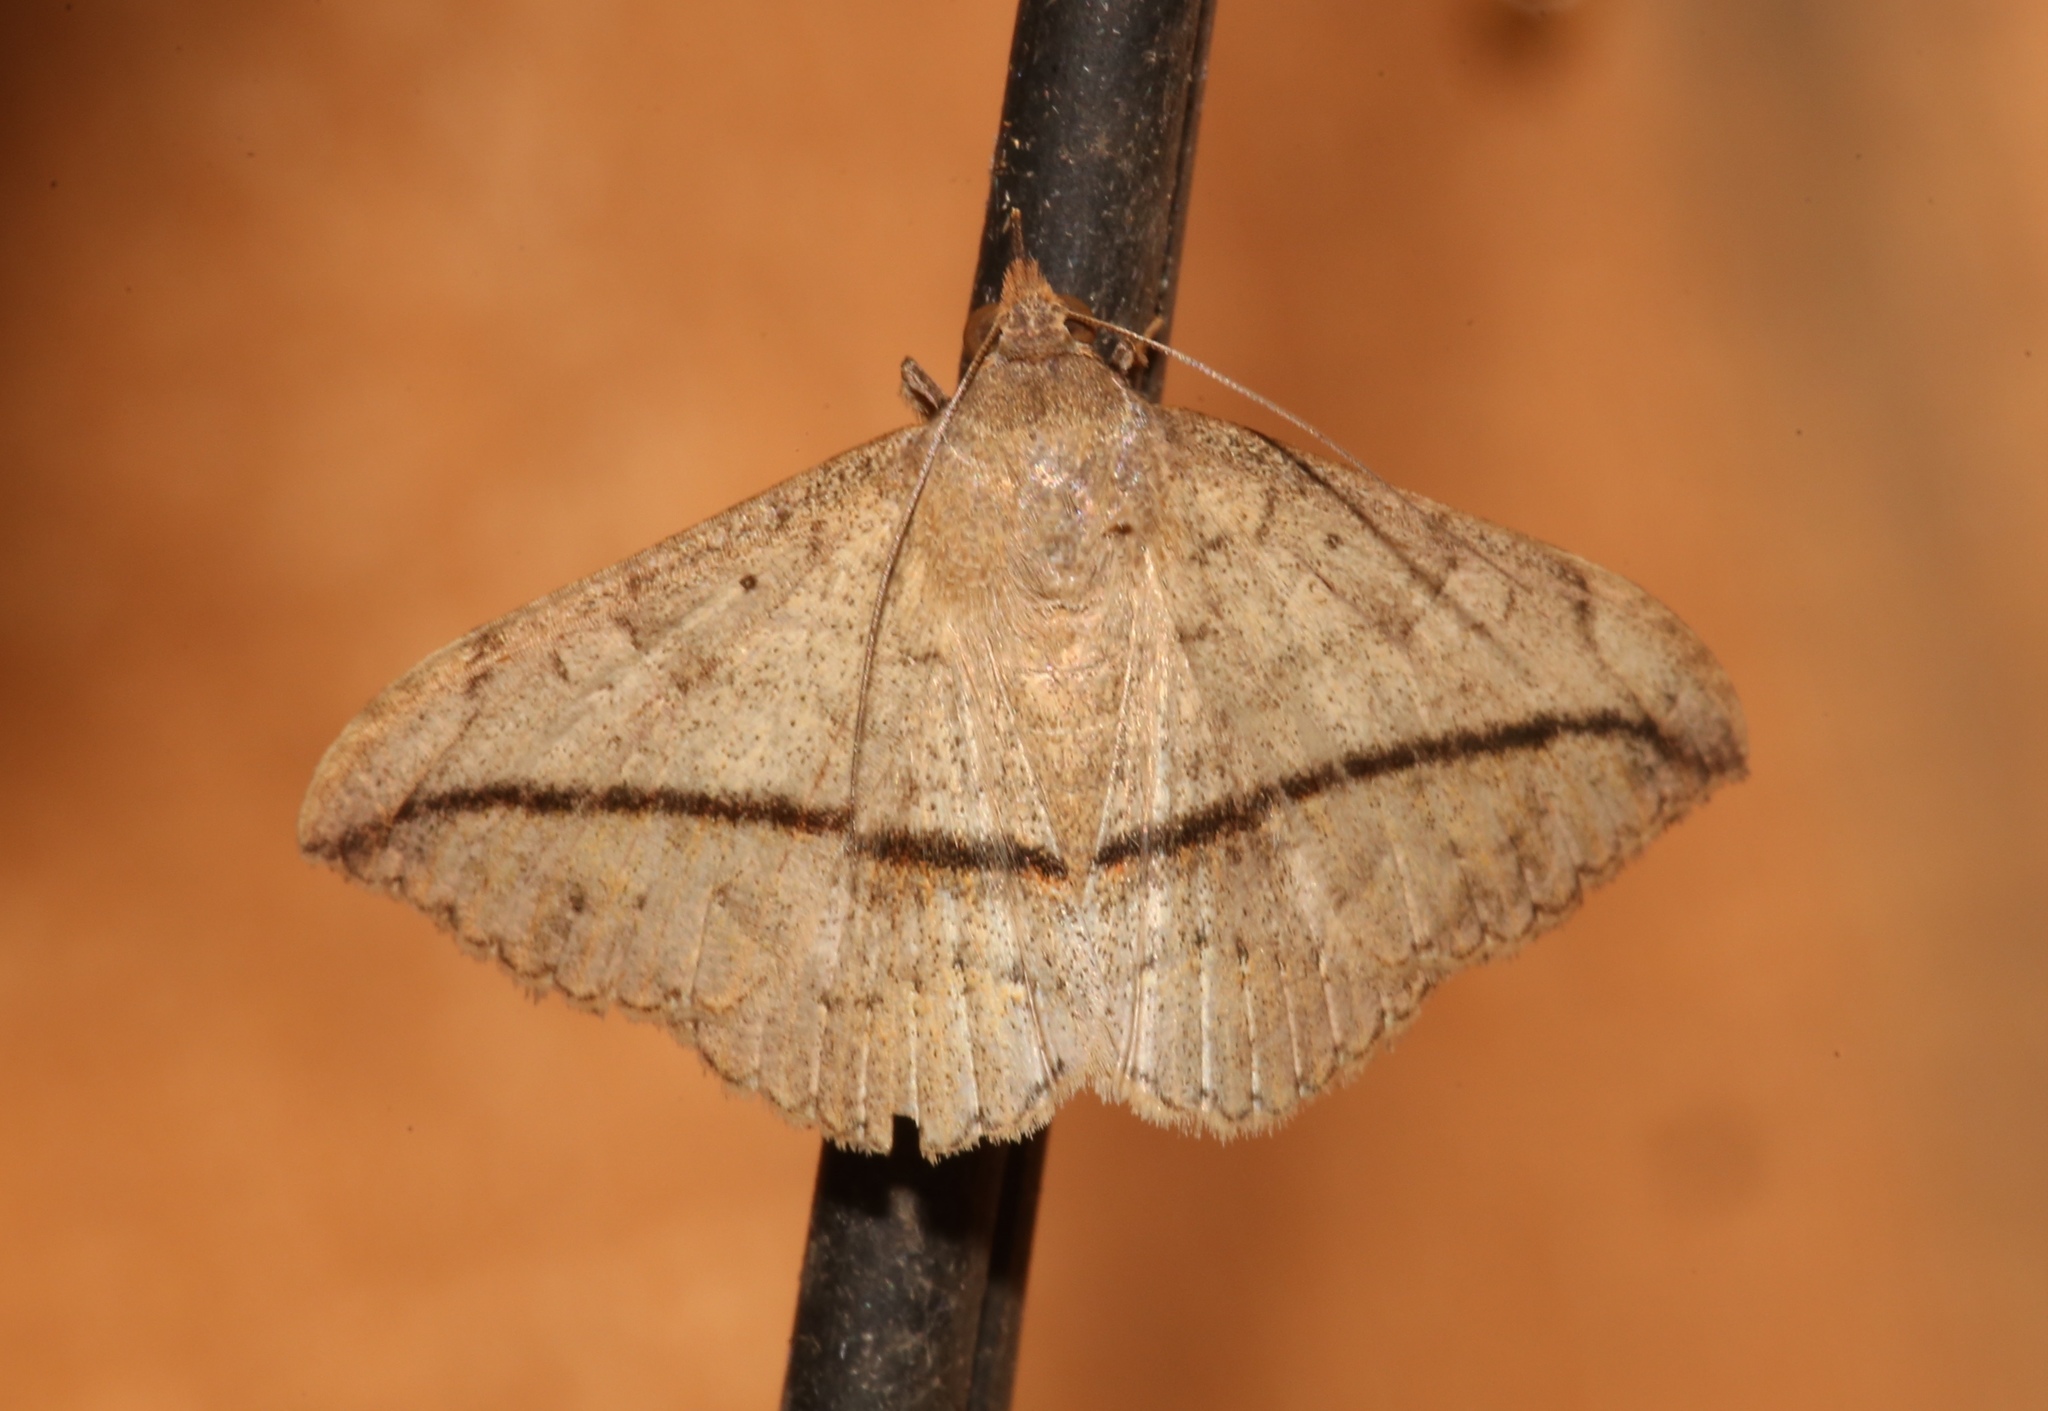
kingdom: Animalia
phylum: Arthropoda
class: Insecta
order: Lepidoptera
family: Erebidae
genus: Anticarsia
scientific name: Anticarsia gemmatalis
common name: Cutworm moth
